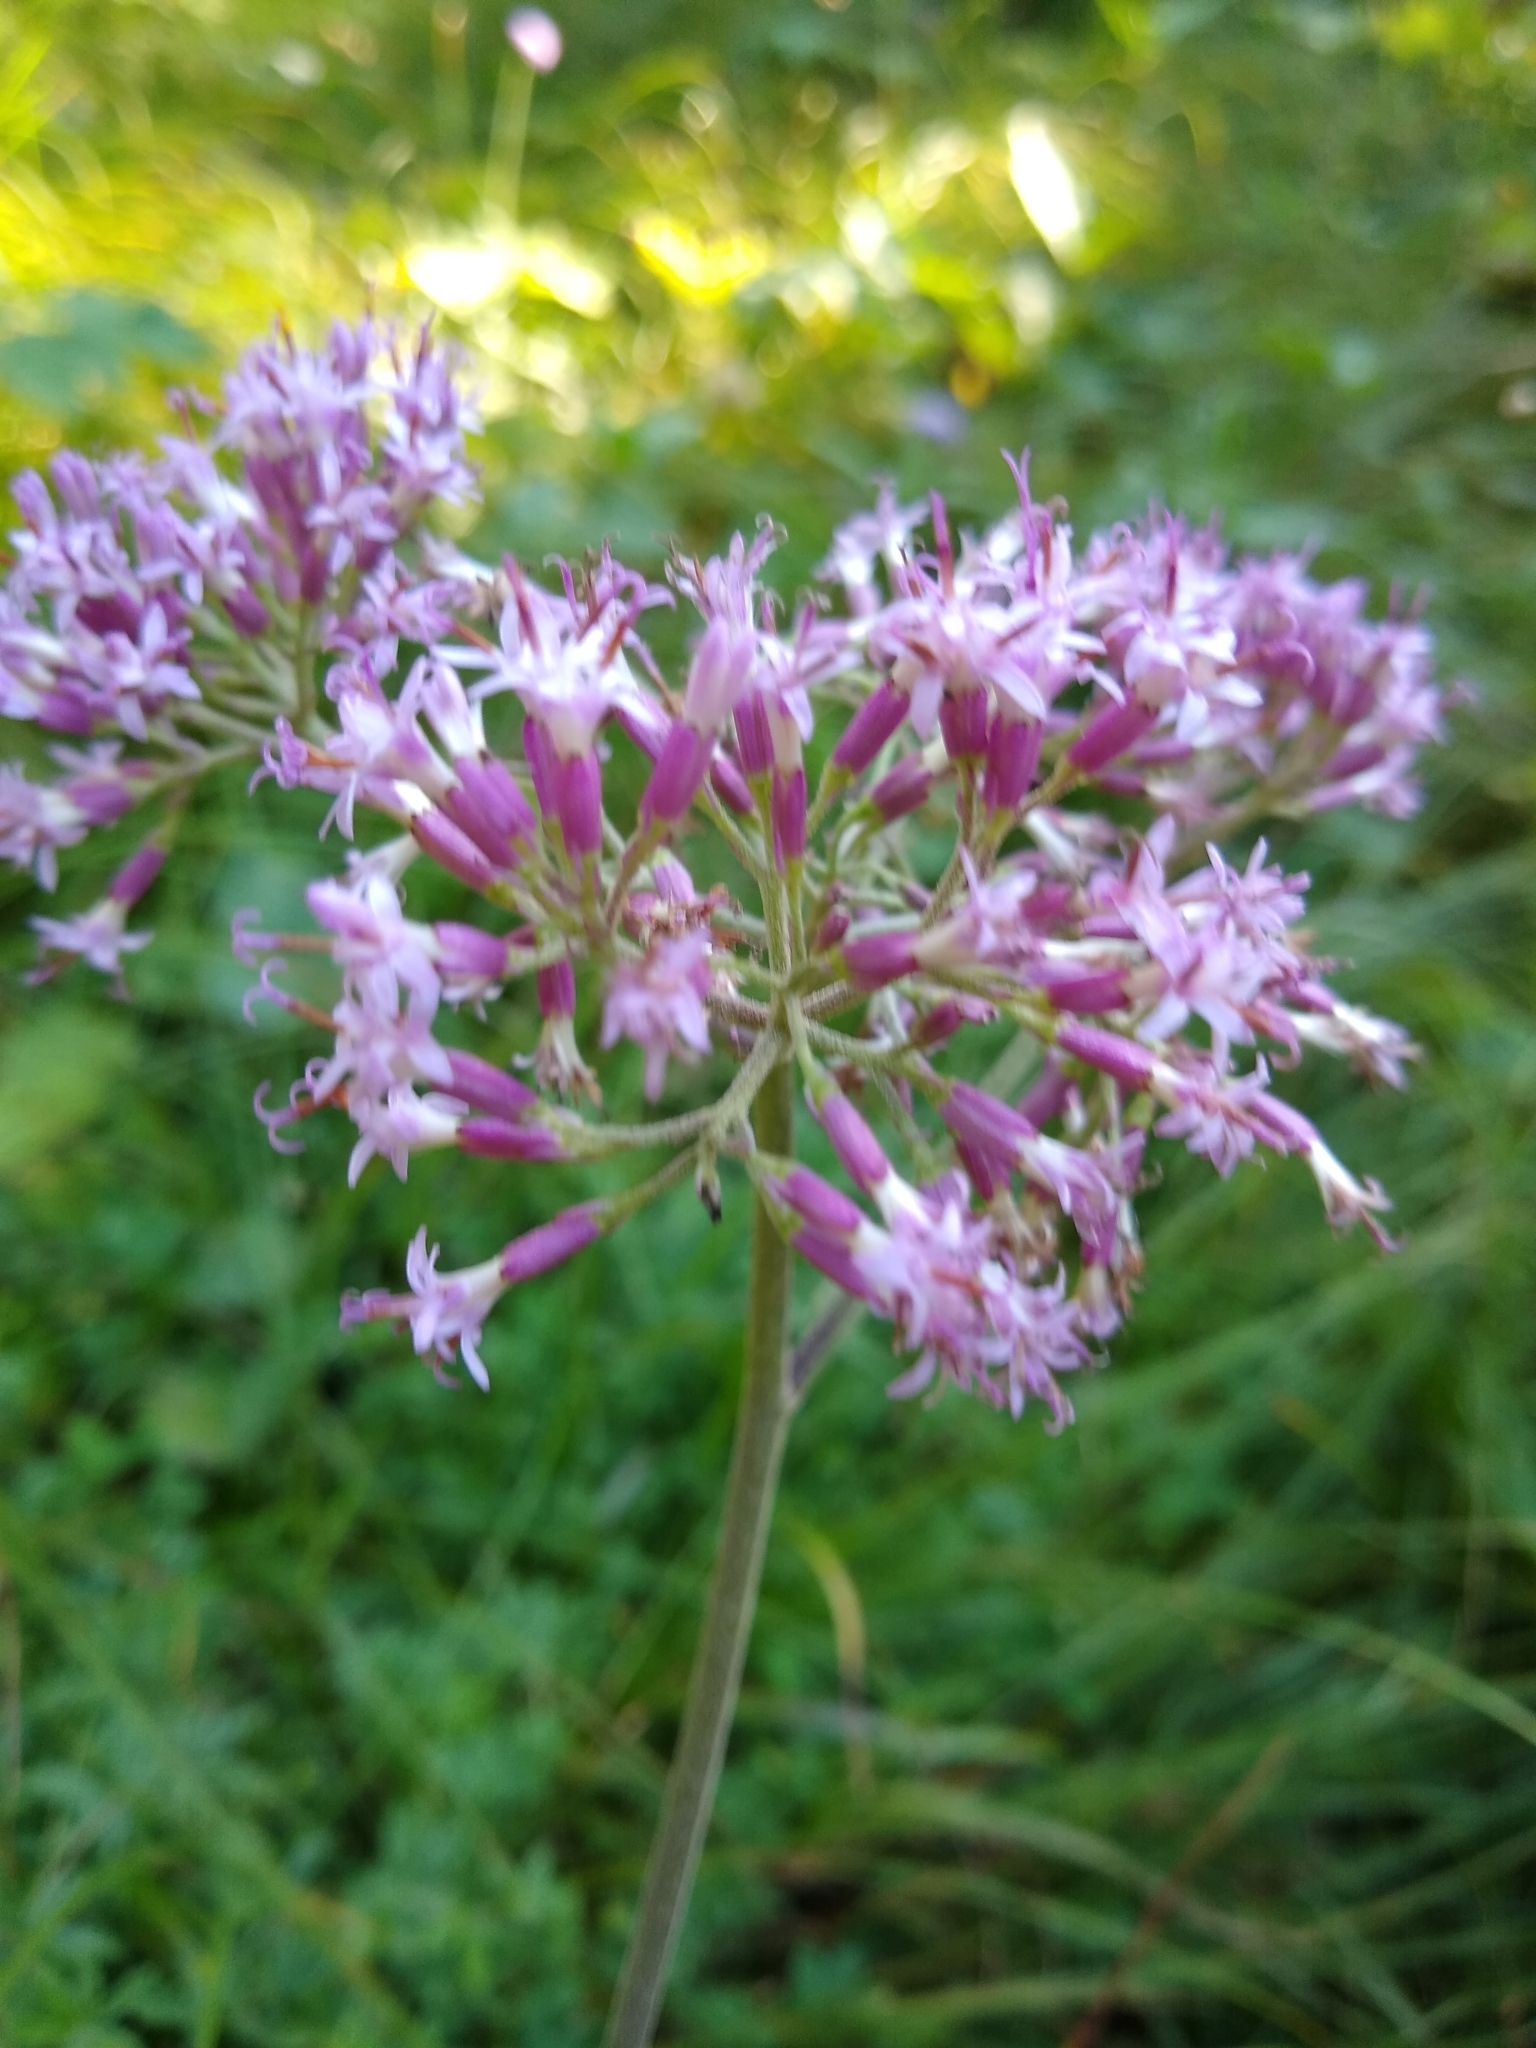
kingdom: Plantae
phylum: Tracheophyta
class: Magnoliopsida
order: Asterales
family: Asteraceae
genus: Adenostyles
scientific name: Adenostyles alpina
